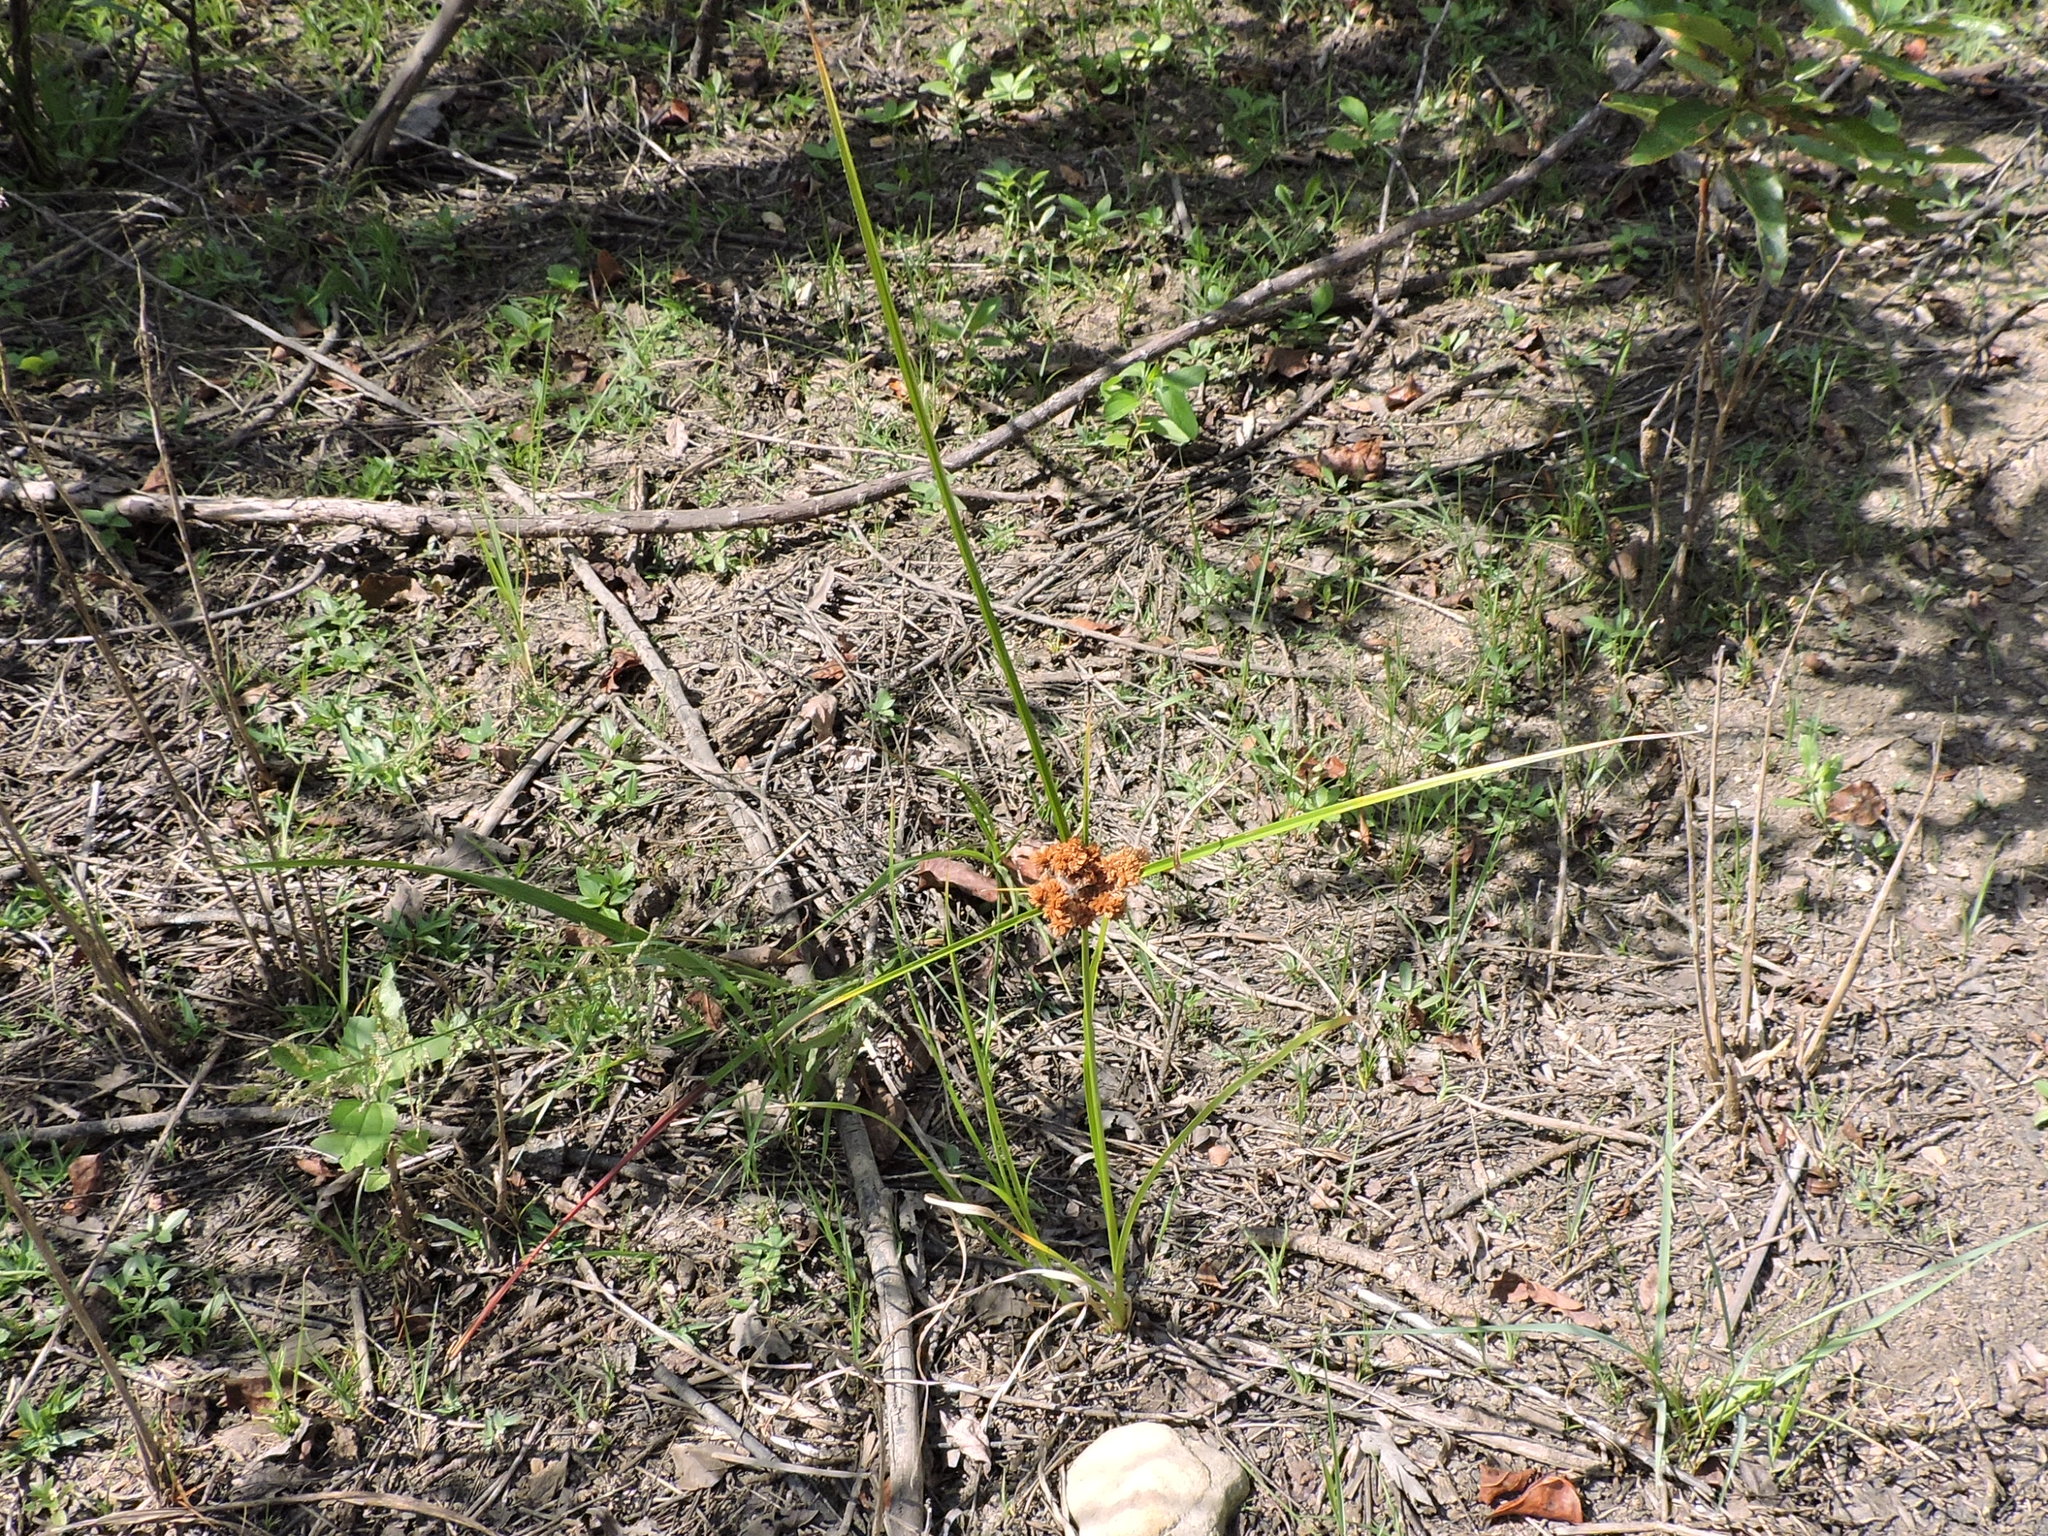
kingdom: Plantae
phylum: Tracheophyta
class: Liliopsida
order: Poales
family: Cyperaceae
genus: Cyperus
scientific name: Cyperus pseudovegetus
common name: Marsh flat sedge
